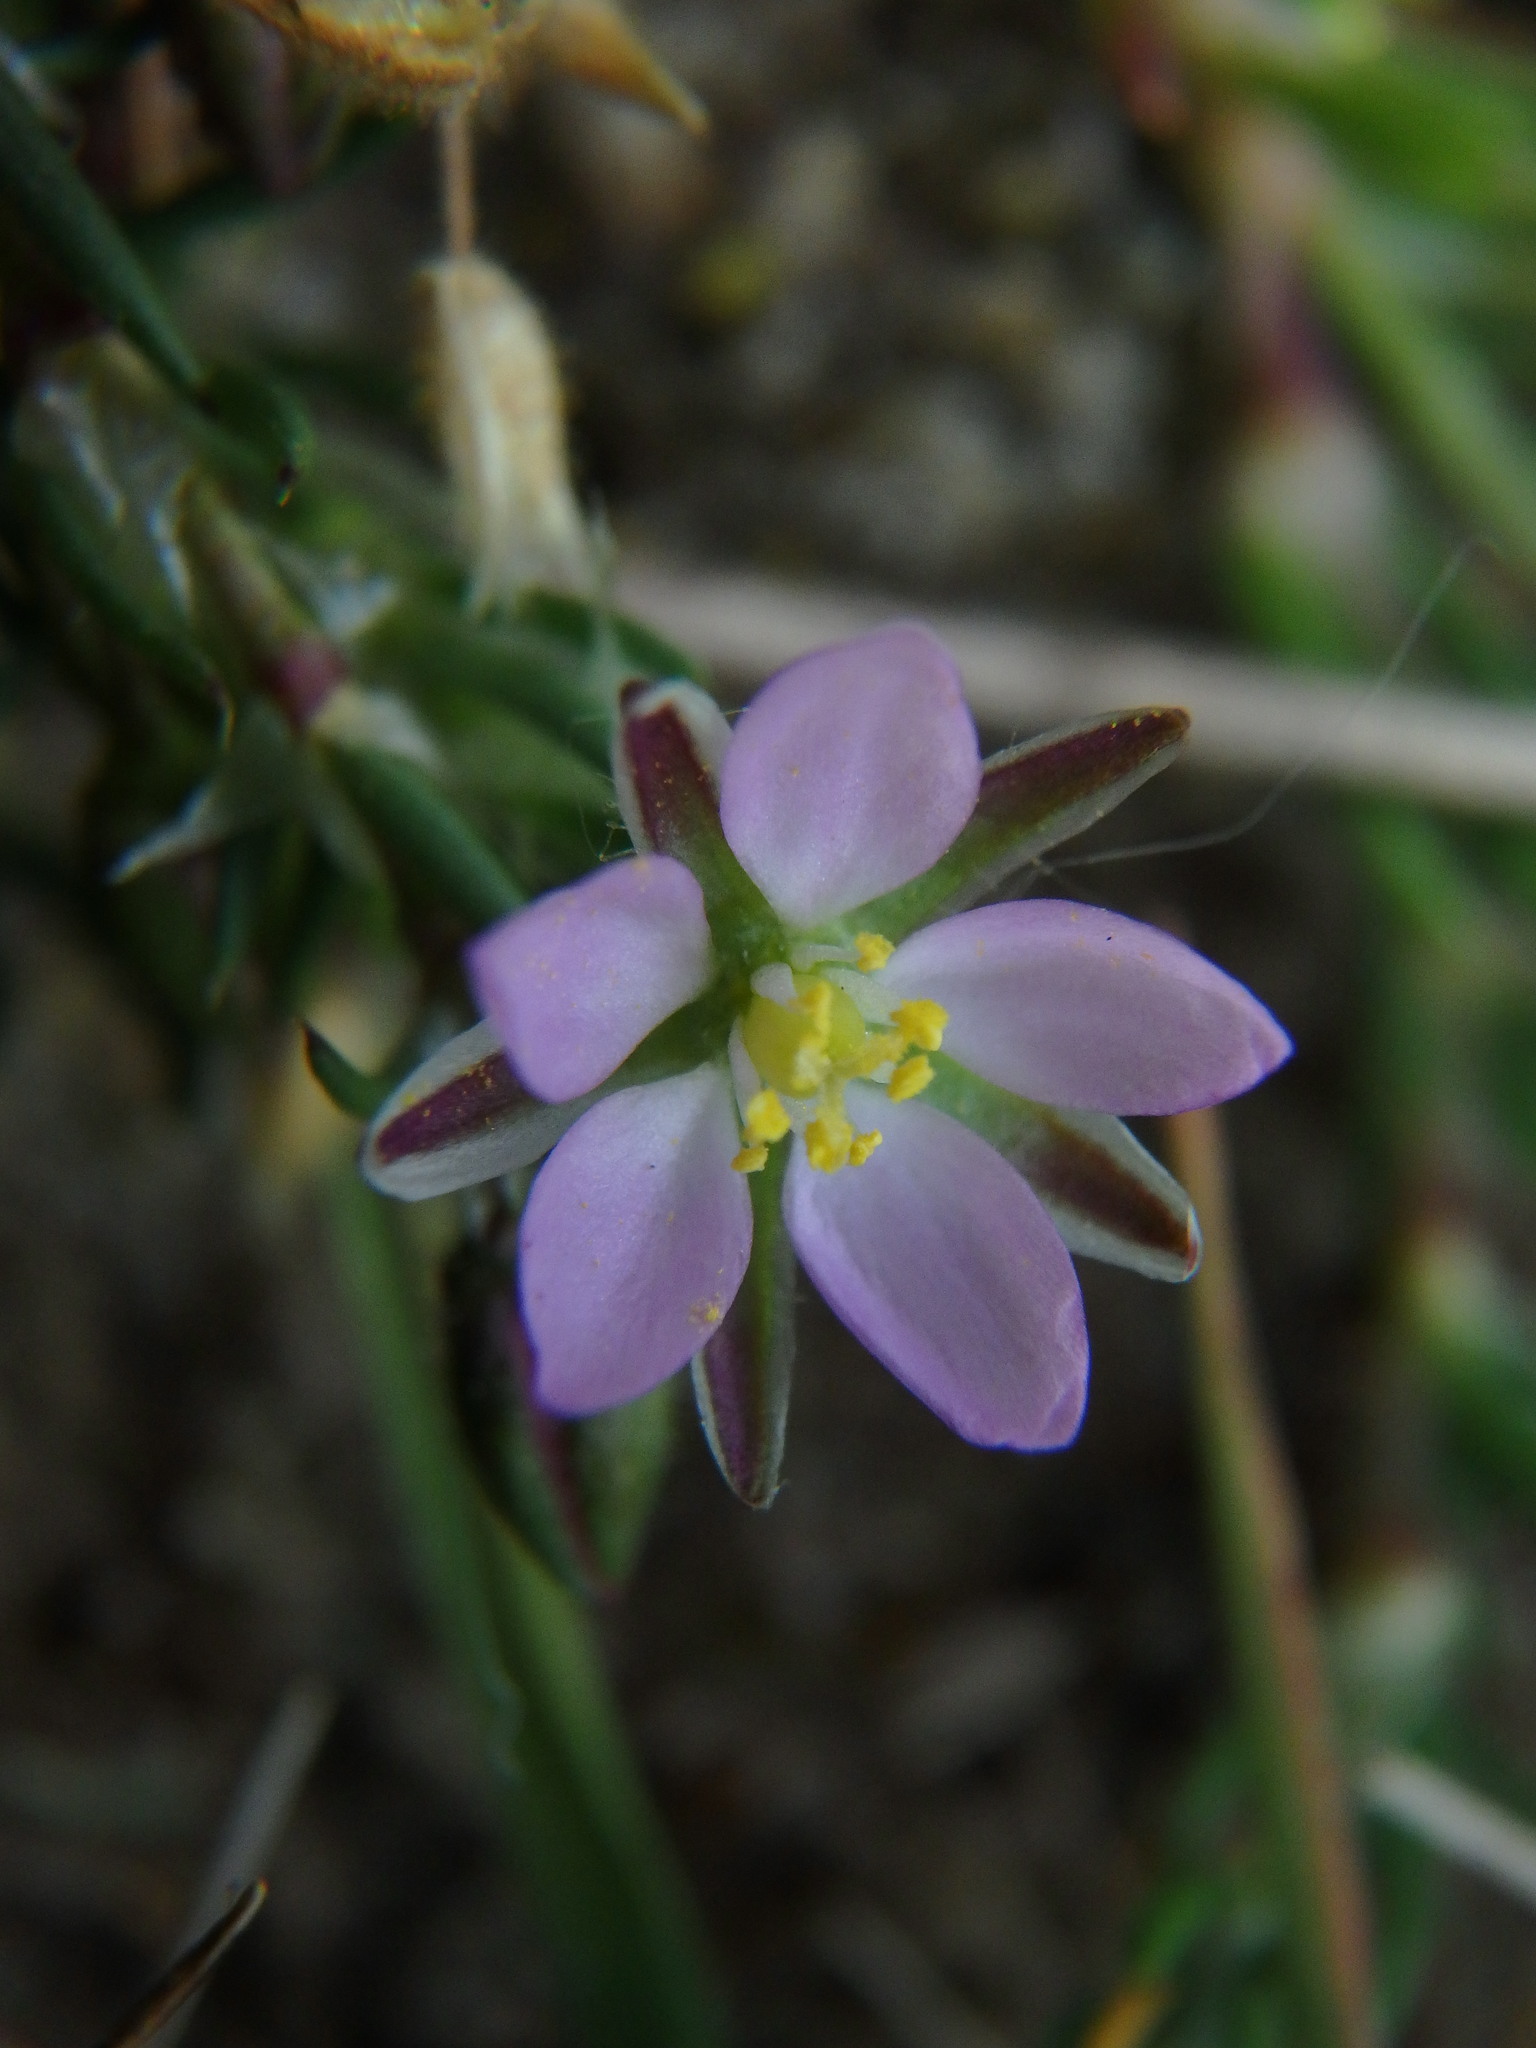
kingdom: Plantae
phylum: Tracheophyta
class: Magnoliopsida
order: Caryophyllales
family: Caryophyllaceae
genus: Spergularia
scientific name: Spergularia rubra
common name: Red sand-spurrey
